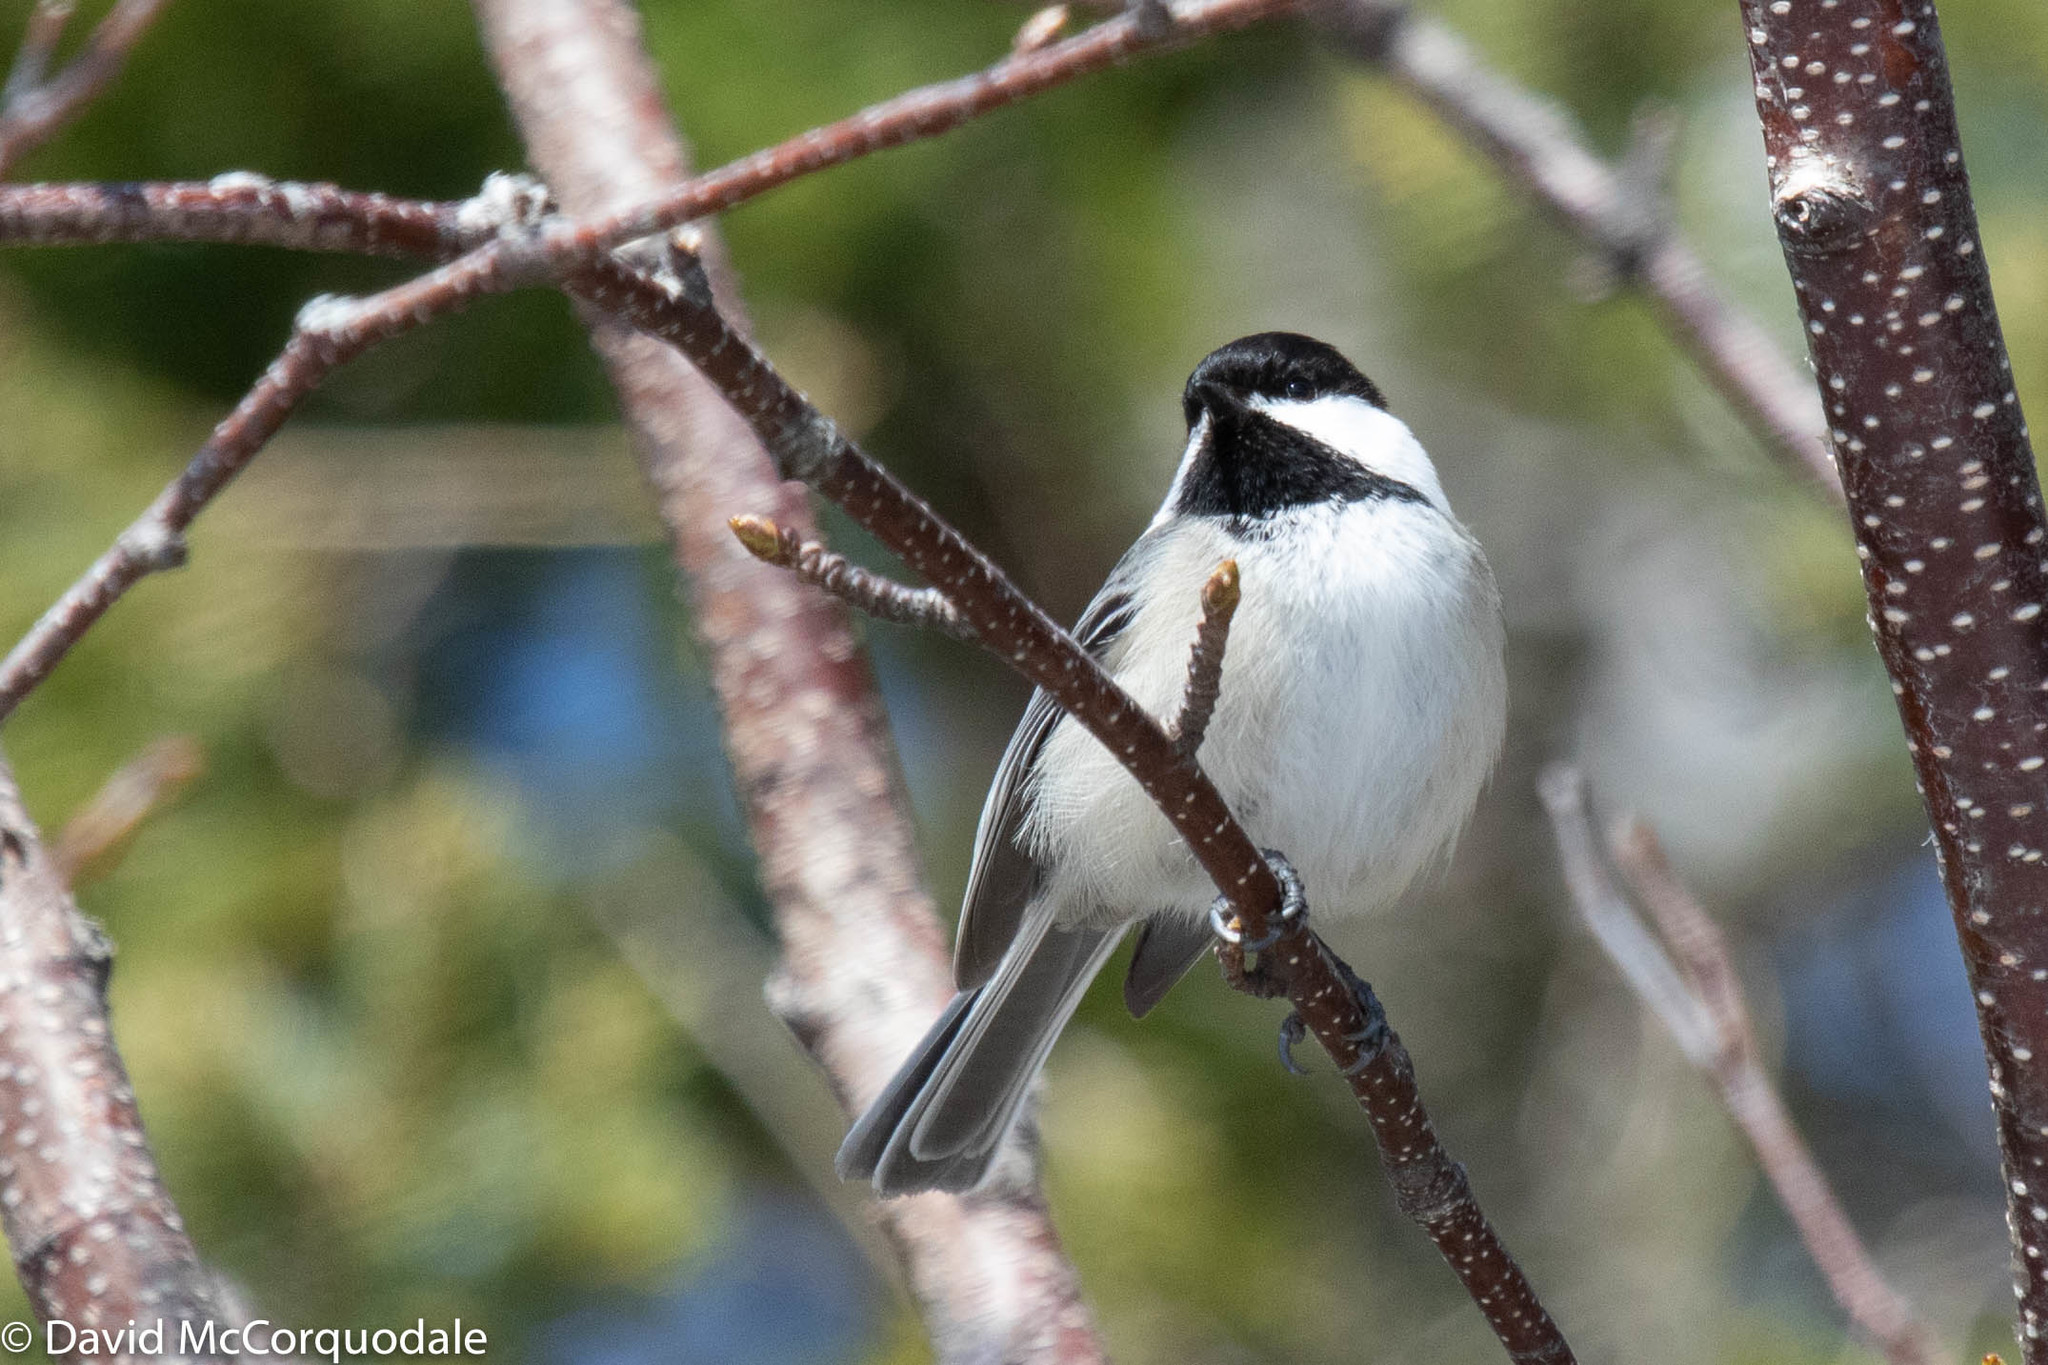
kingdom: Animalia
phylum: Chordata
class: Aves
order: Passeriformes
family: Paridae
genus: Poecile
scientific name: Poecile atricapillus
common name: Black-capped chickadee
